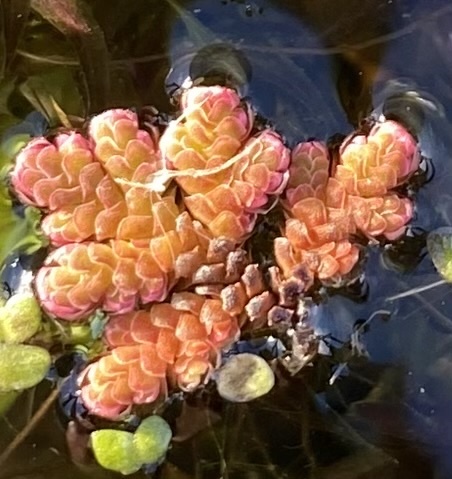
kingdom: Plantae
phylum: Tracheophyta
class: Polypodiopsida
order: Salviniales
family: Salviniaceae
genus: Azolla
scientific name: Azolla filiculoides
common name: Water fern
